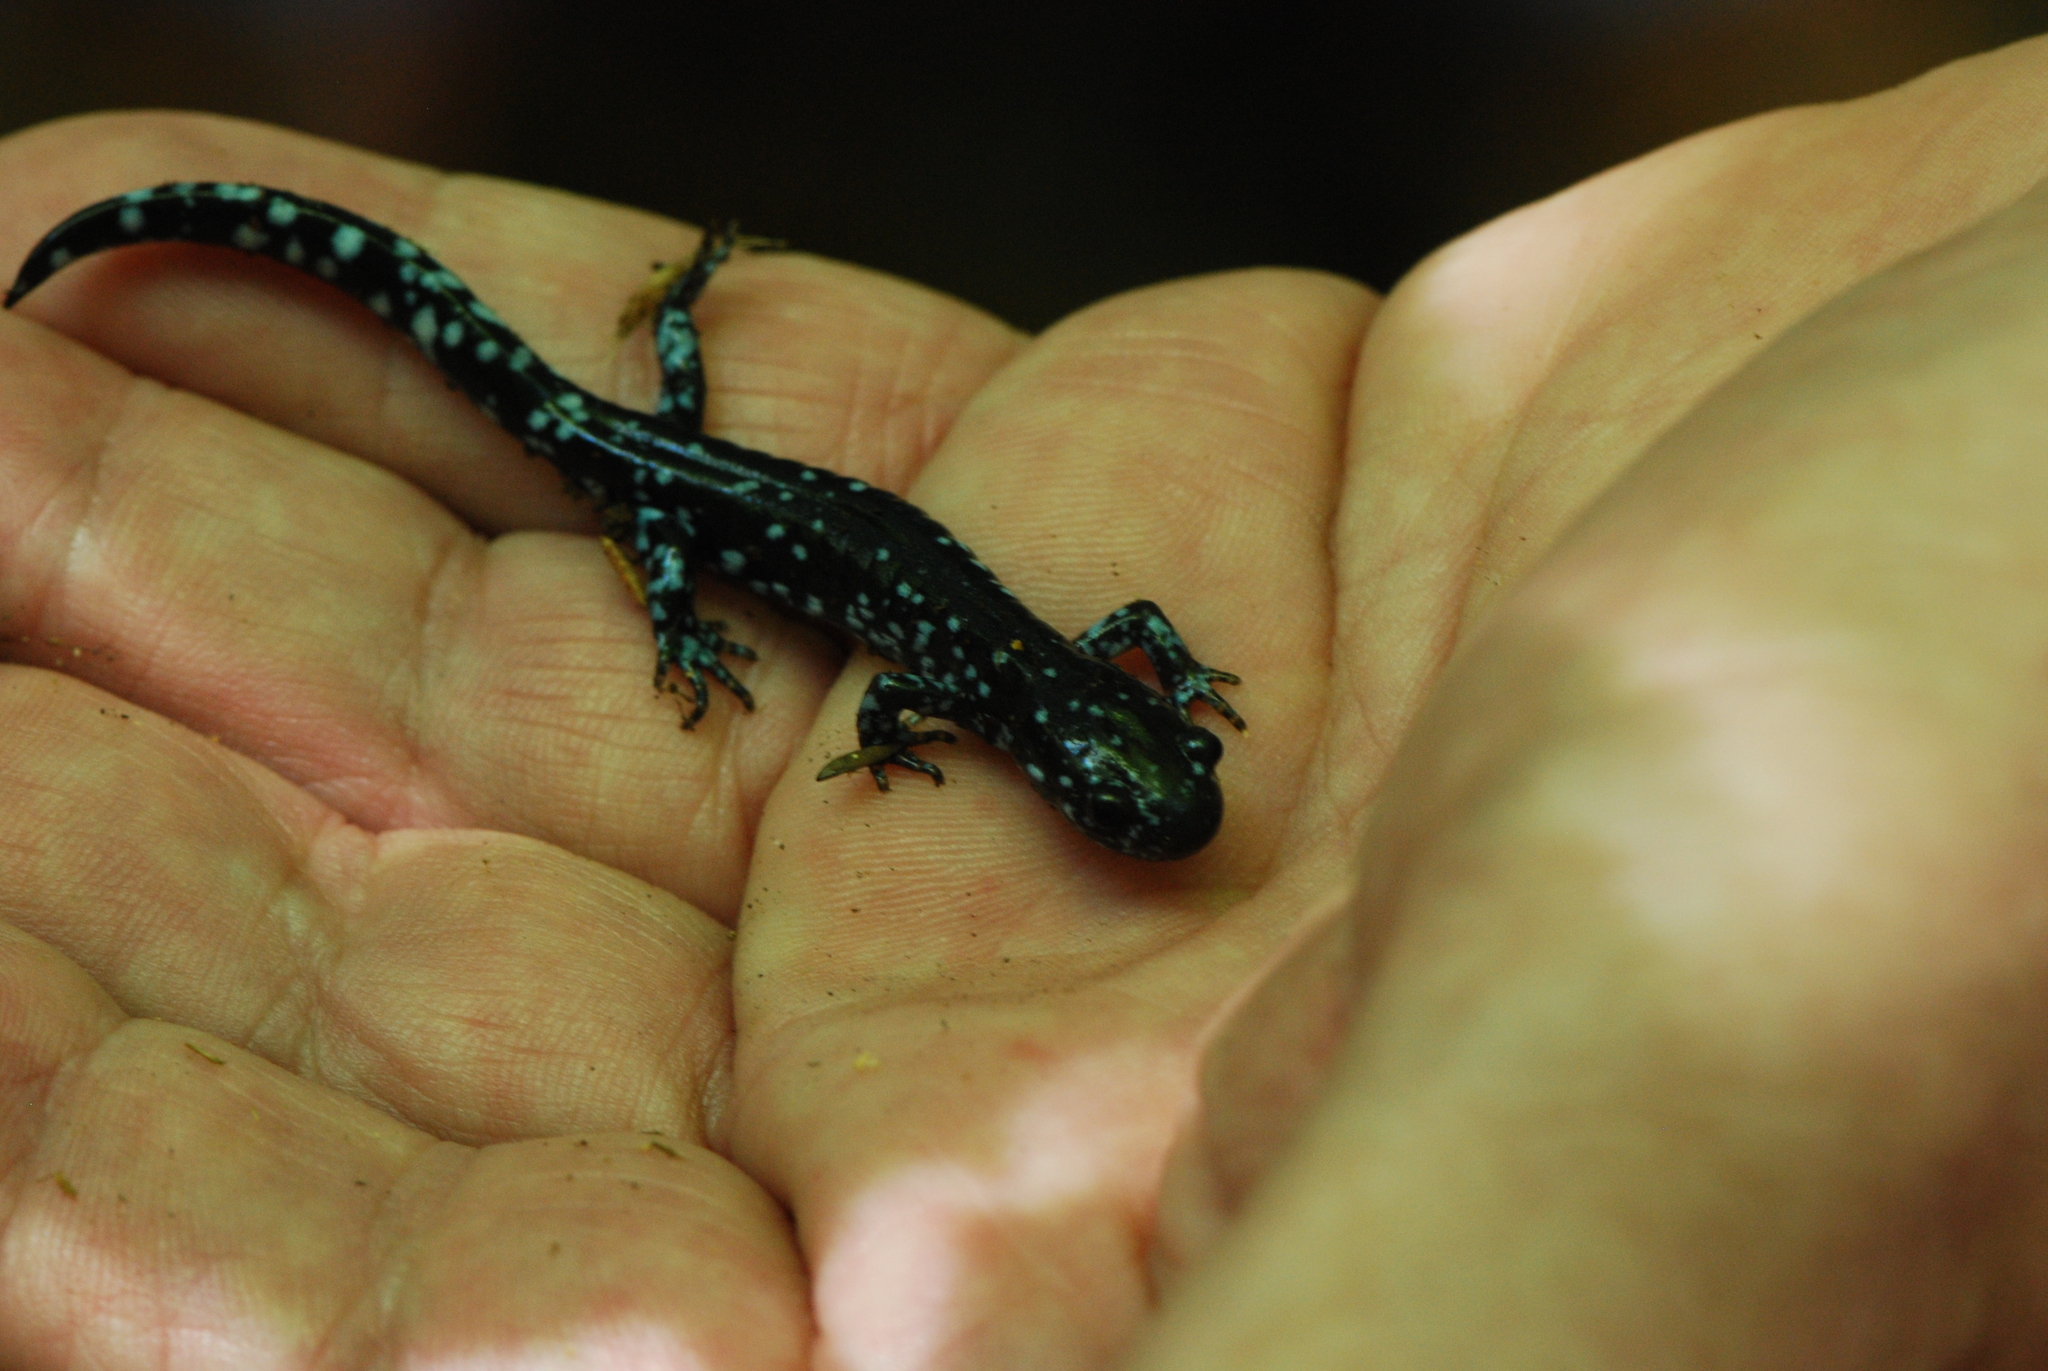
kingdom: Animalia
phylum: Chordata
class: Amphibia
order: Caudata
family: Ambystomatidae
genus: Ambystoma
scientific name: Ambystoma laterale
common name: Blue-spotted salamander
